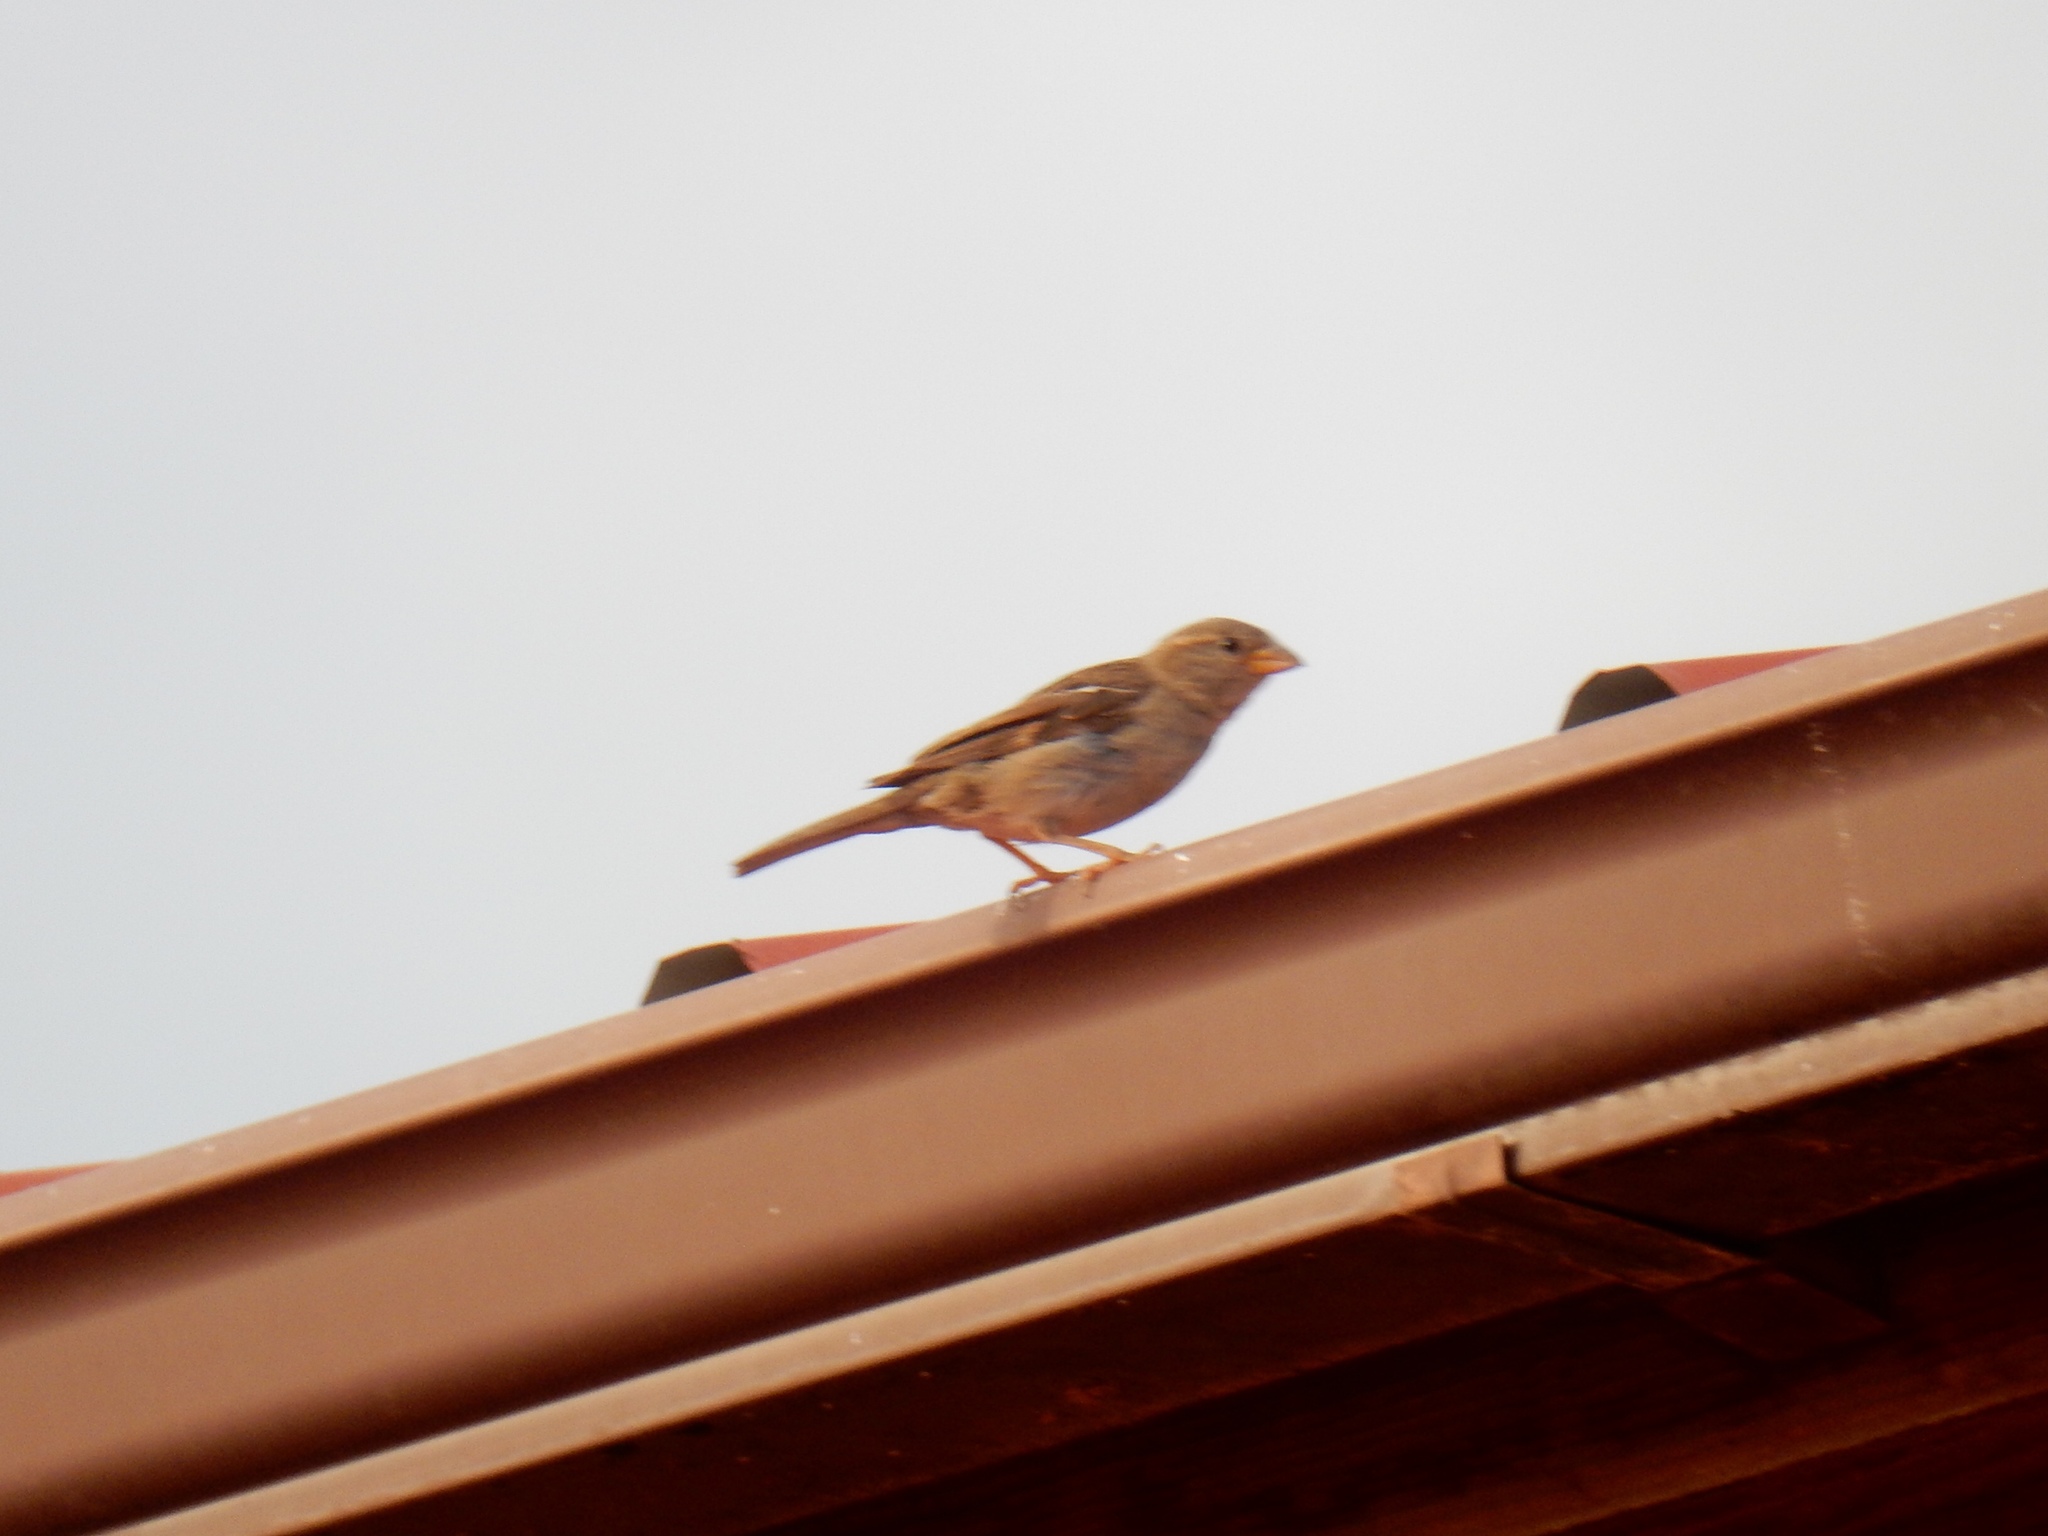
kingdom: Animalia
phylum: Chordata
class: Aves
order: Passeriformes
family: Passeridae
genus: Passer
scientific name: Passer domesticus
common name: House sparrow
